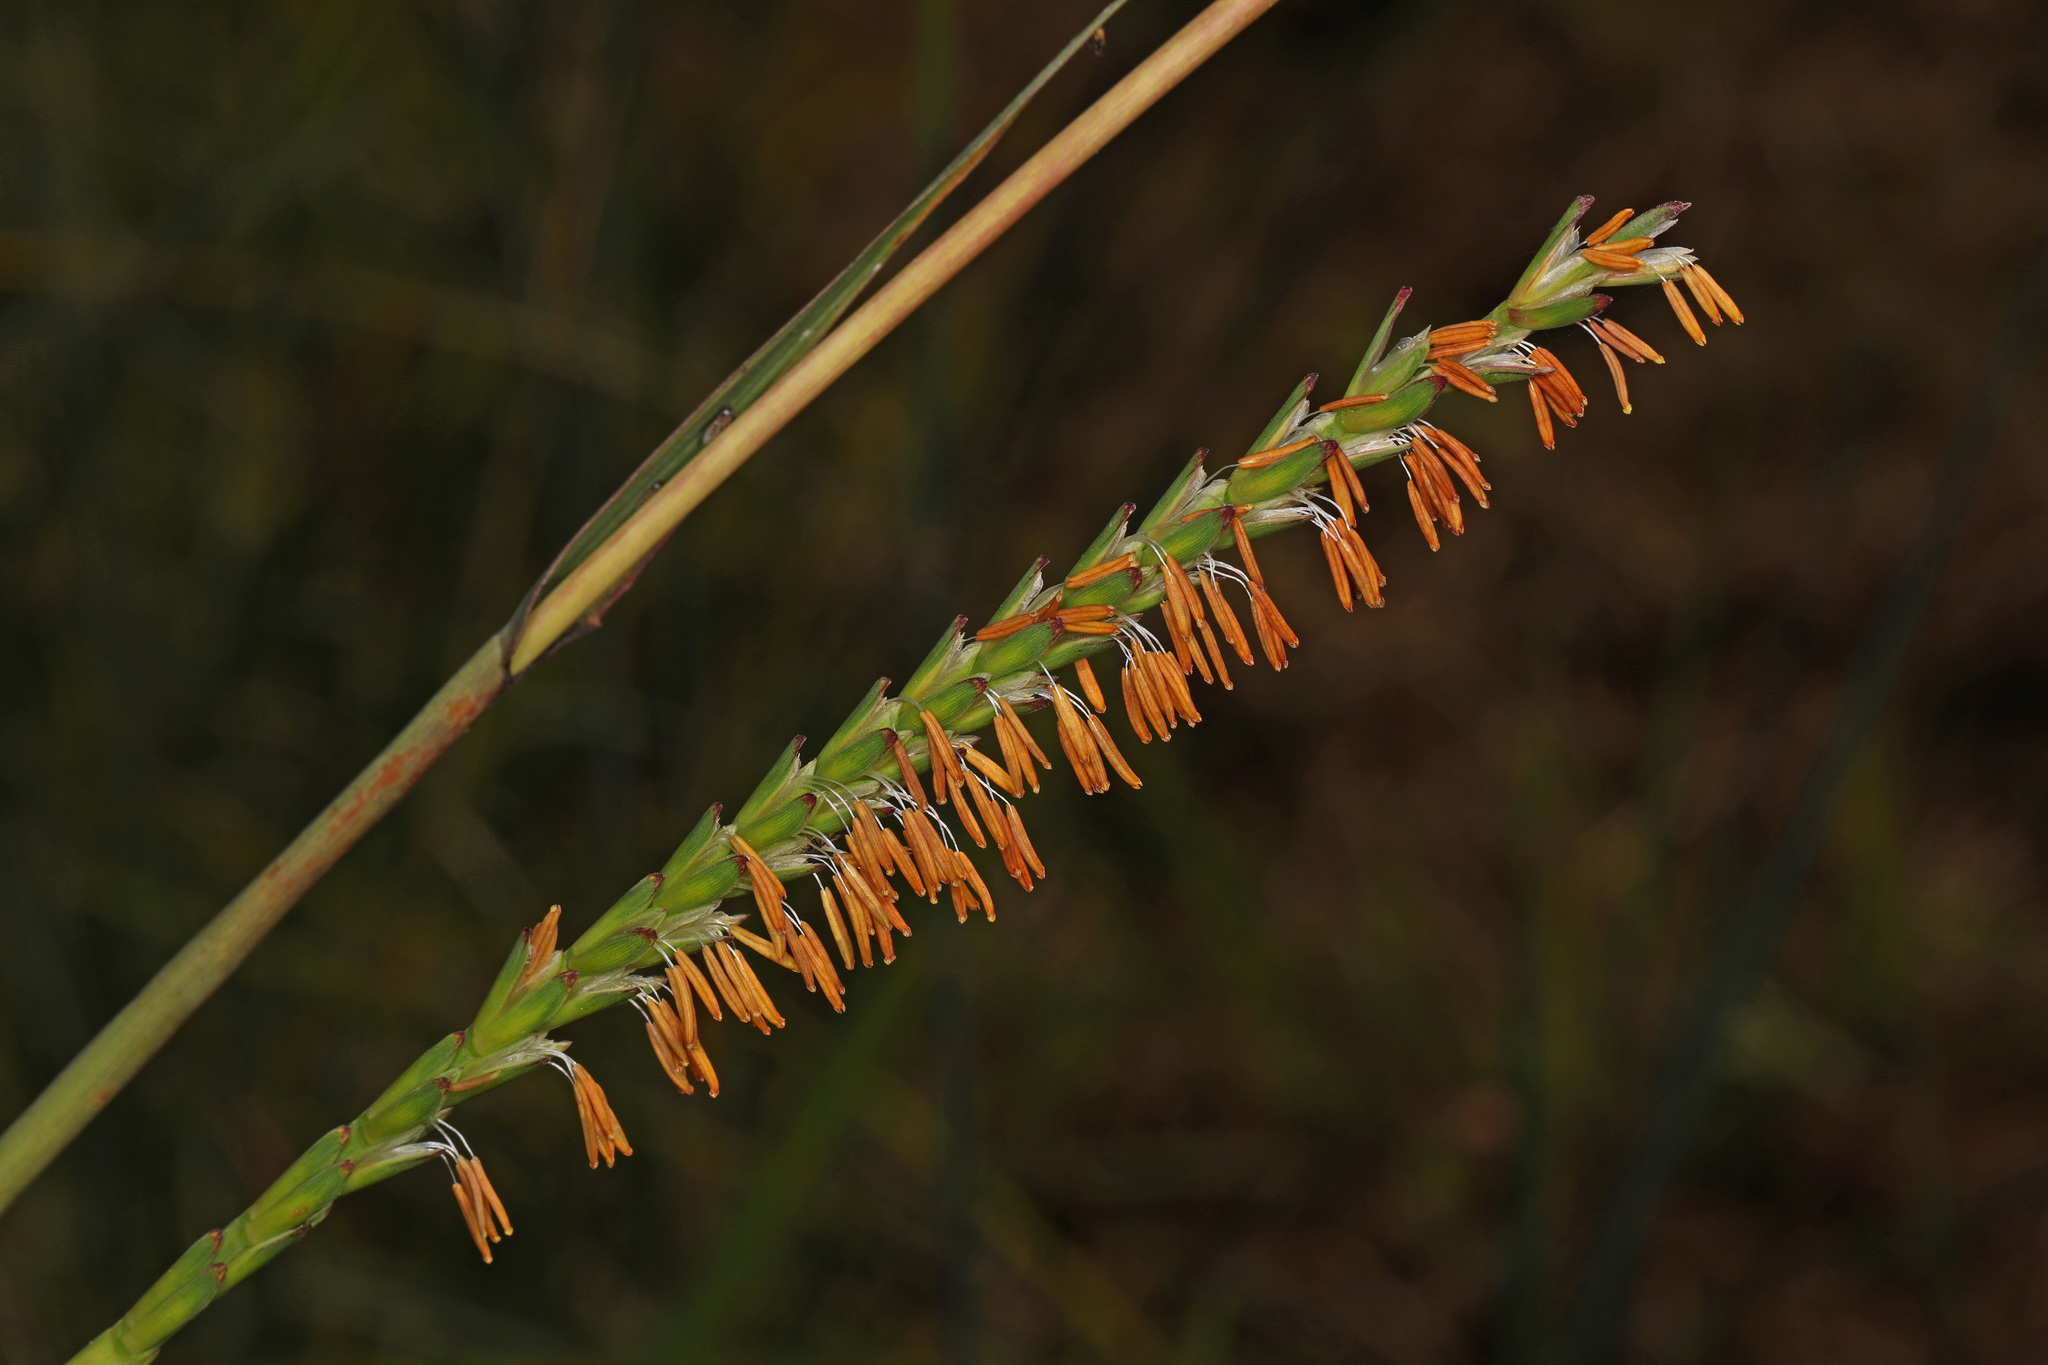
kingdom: Plantae
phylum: Tracheophyta
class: Liliopsida
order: Poales
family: Poaceae
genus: Tripsacum
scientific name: Tripsacum dactyloides
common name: Buffalo-grass
